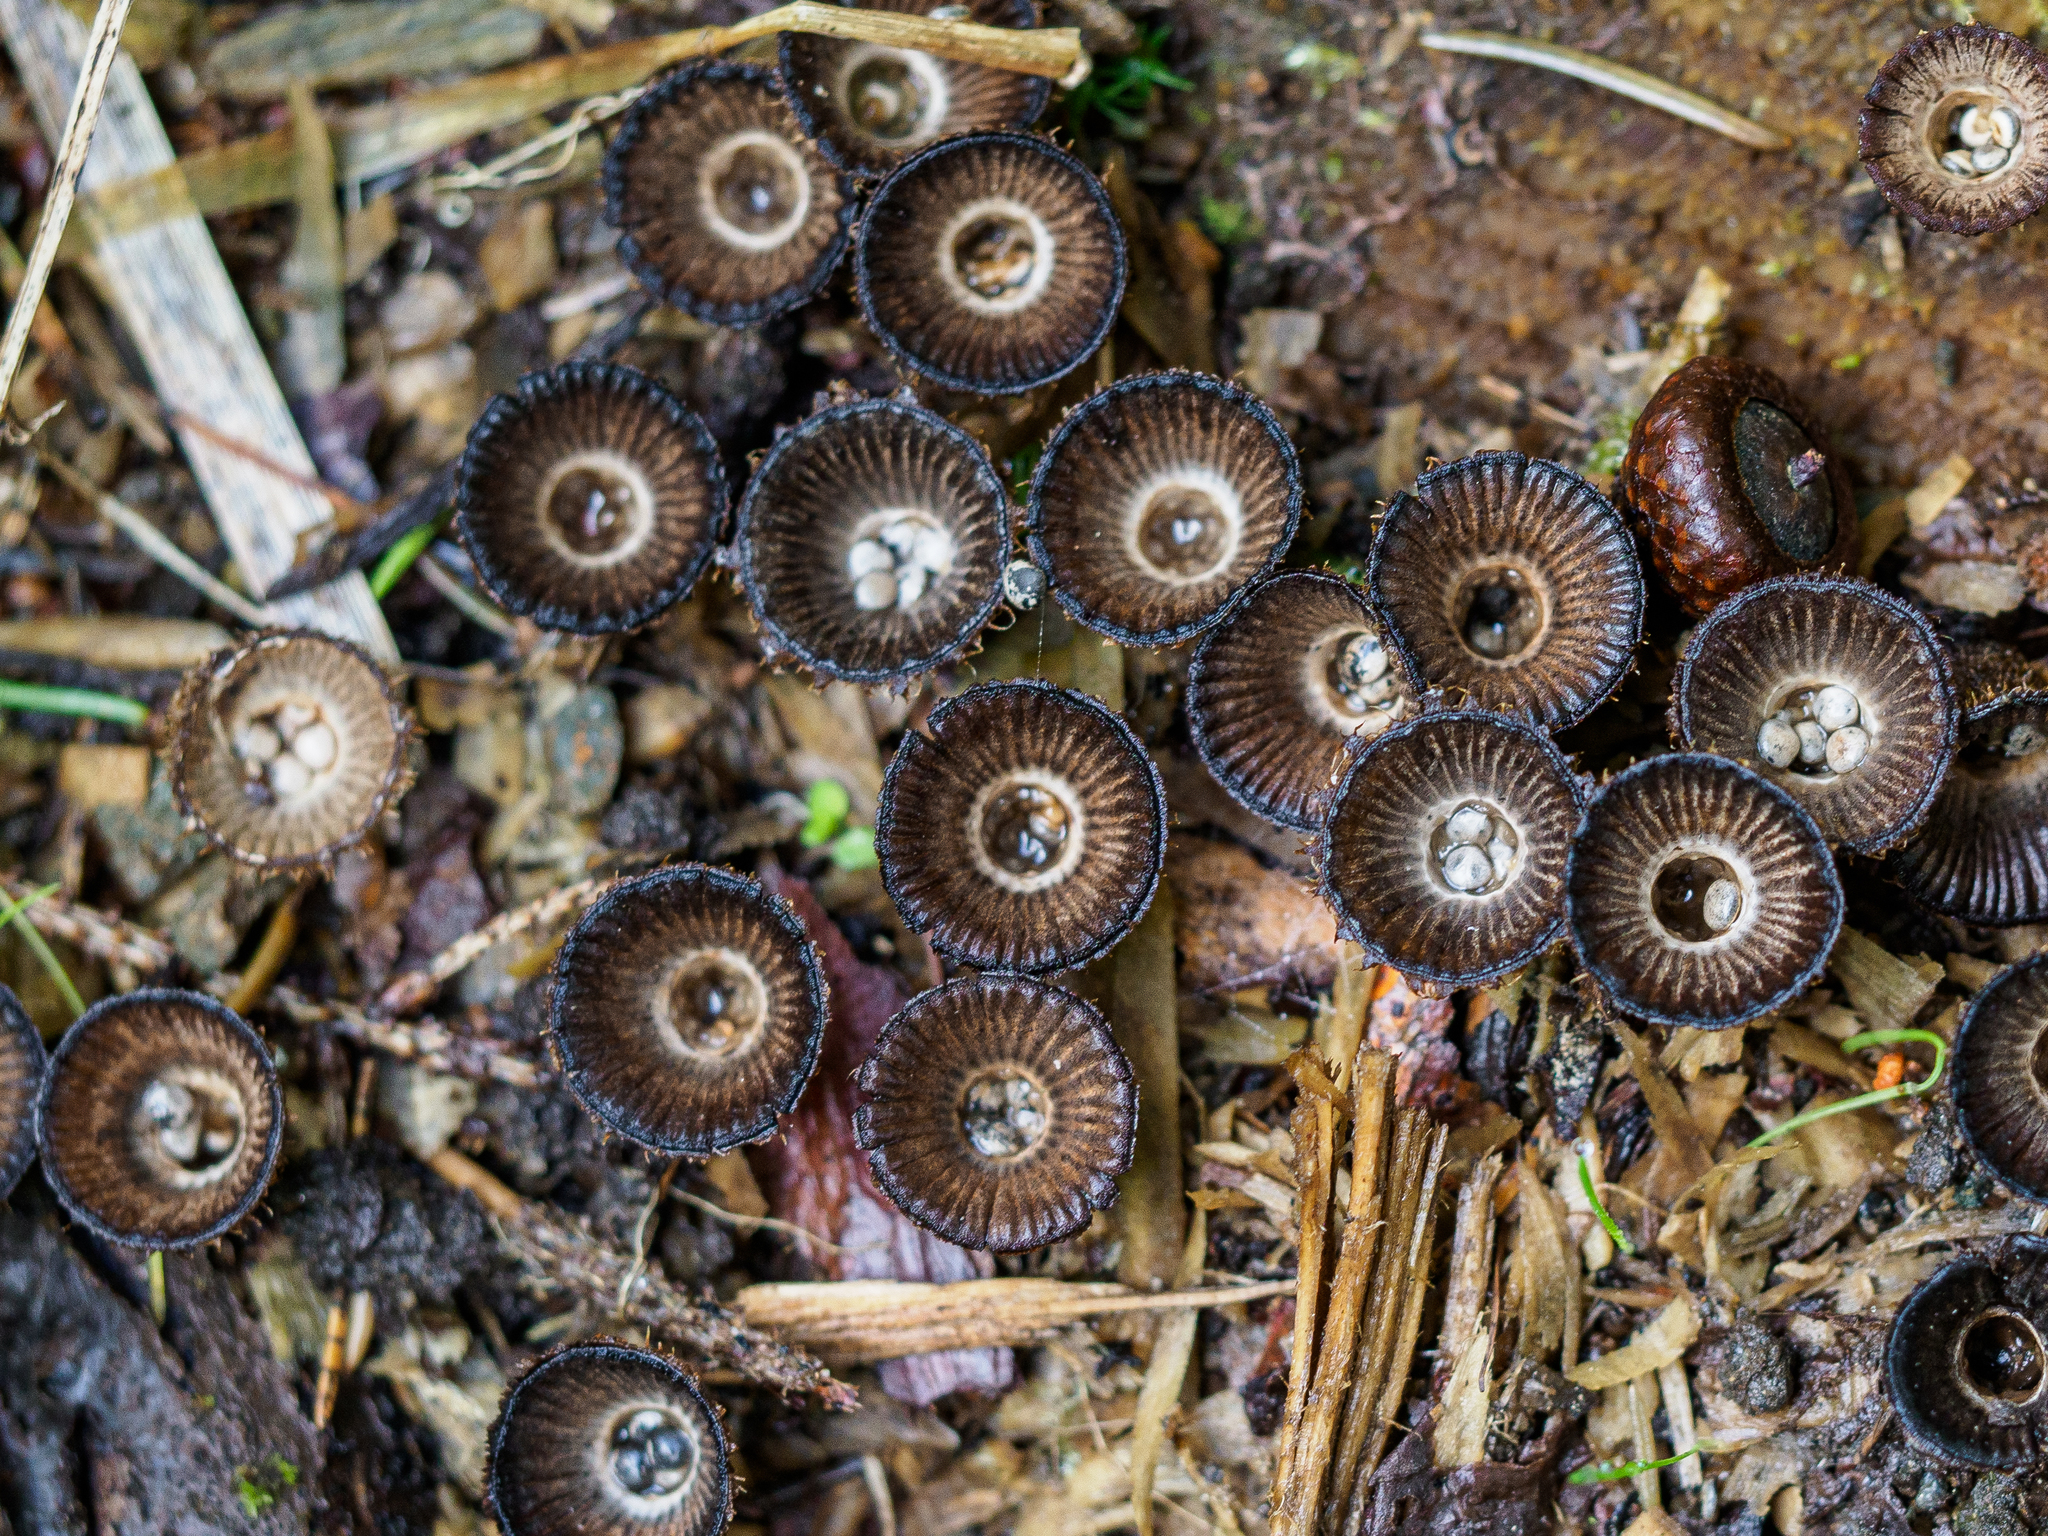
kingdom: Fungi
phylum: Basidiomycota
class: Agaricomycetes
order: Agaricales
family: Agaricaceae
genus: Cyathus
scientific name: Cyathus striatus
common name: Fluted bird's nest
